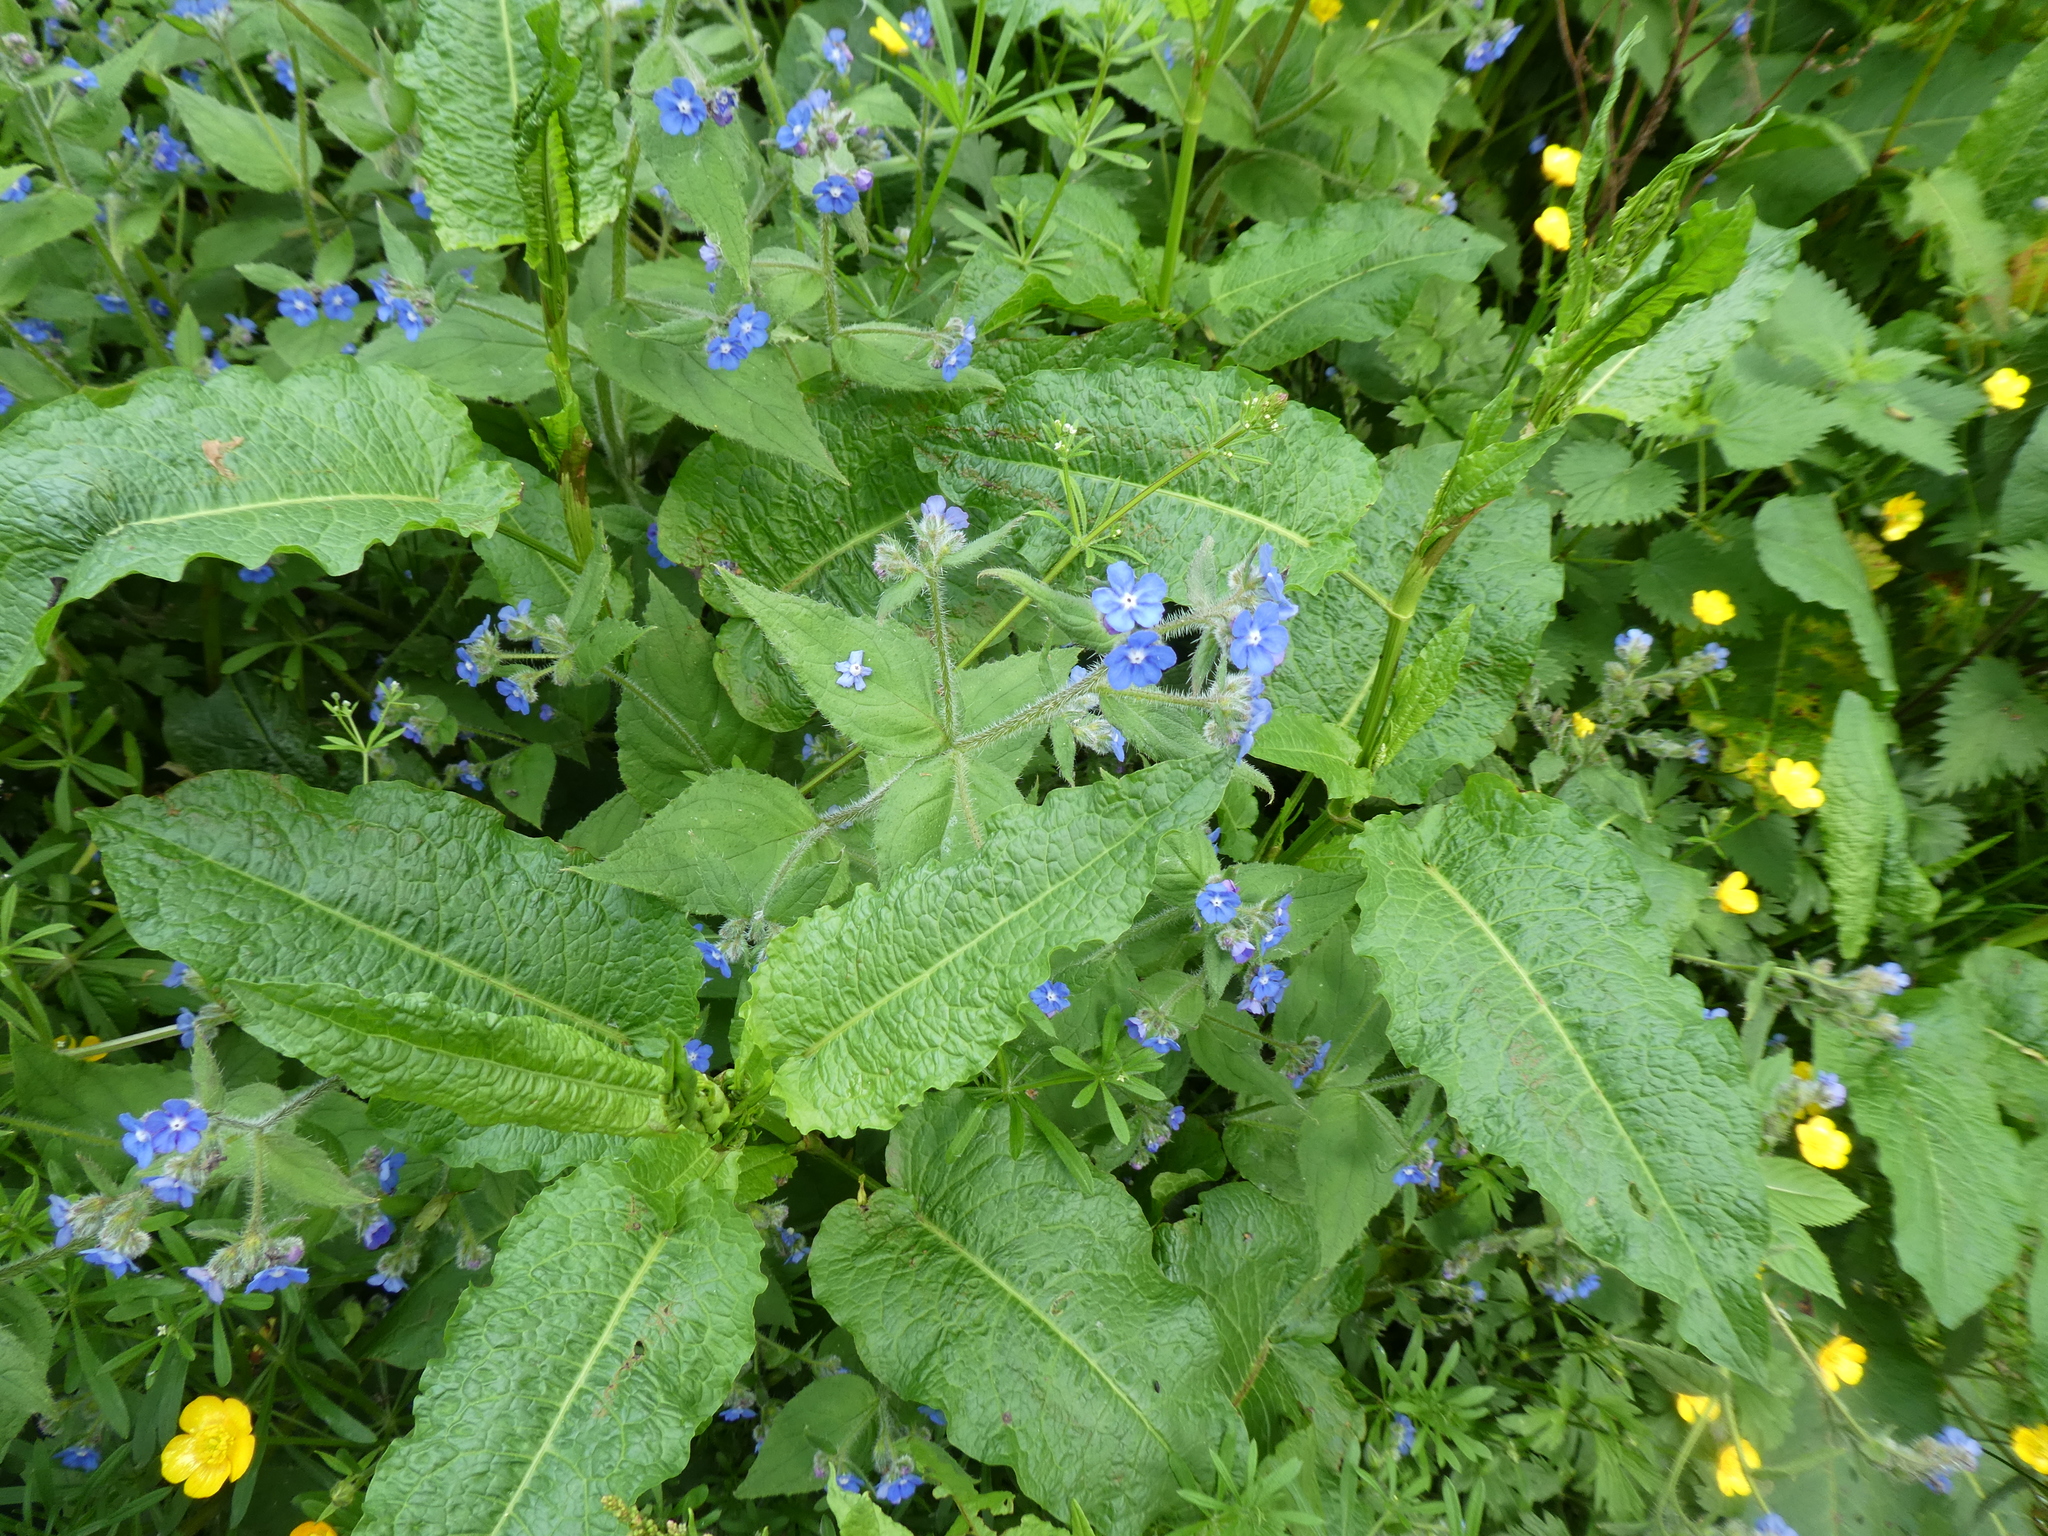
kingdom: Plantae
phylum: Tracheophyta
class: Magnoliopsida
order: Boraginales
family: Boraginaceae
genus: Pentaglottis
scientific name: Pentaglottis sempervirens
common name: Green alkanet
